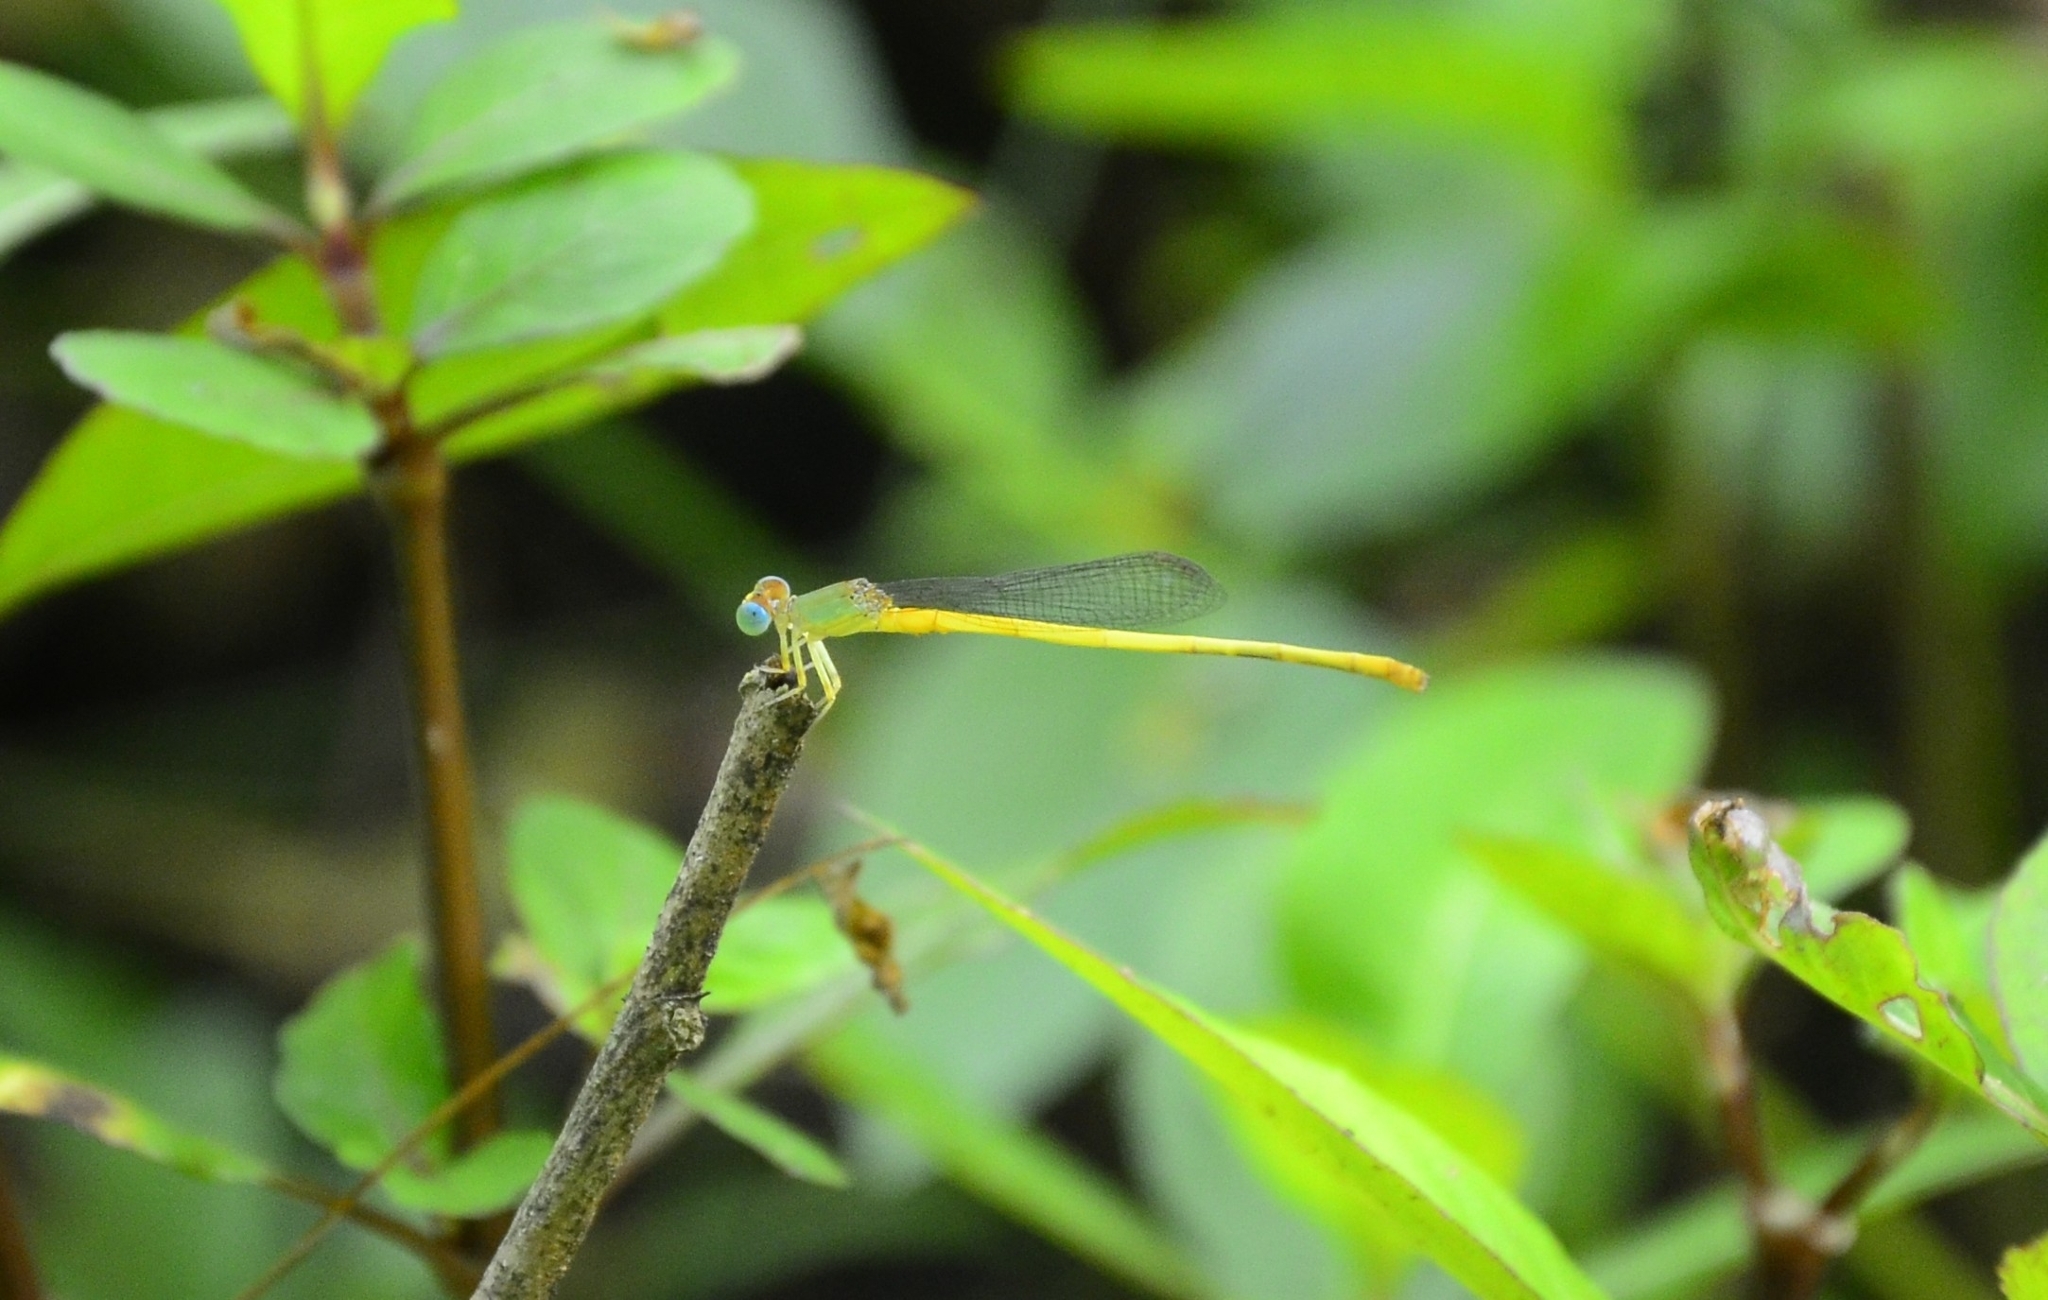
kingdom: Animalia
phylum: Arthropoda
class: Insecta
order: Odonata
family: Coenagrionidae
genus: Ceriagrion
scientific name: Ceriagrion coromandelianum
